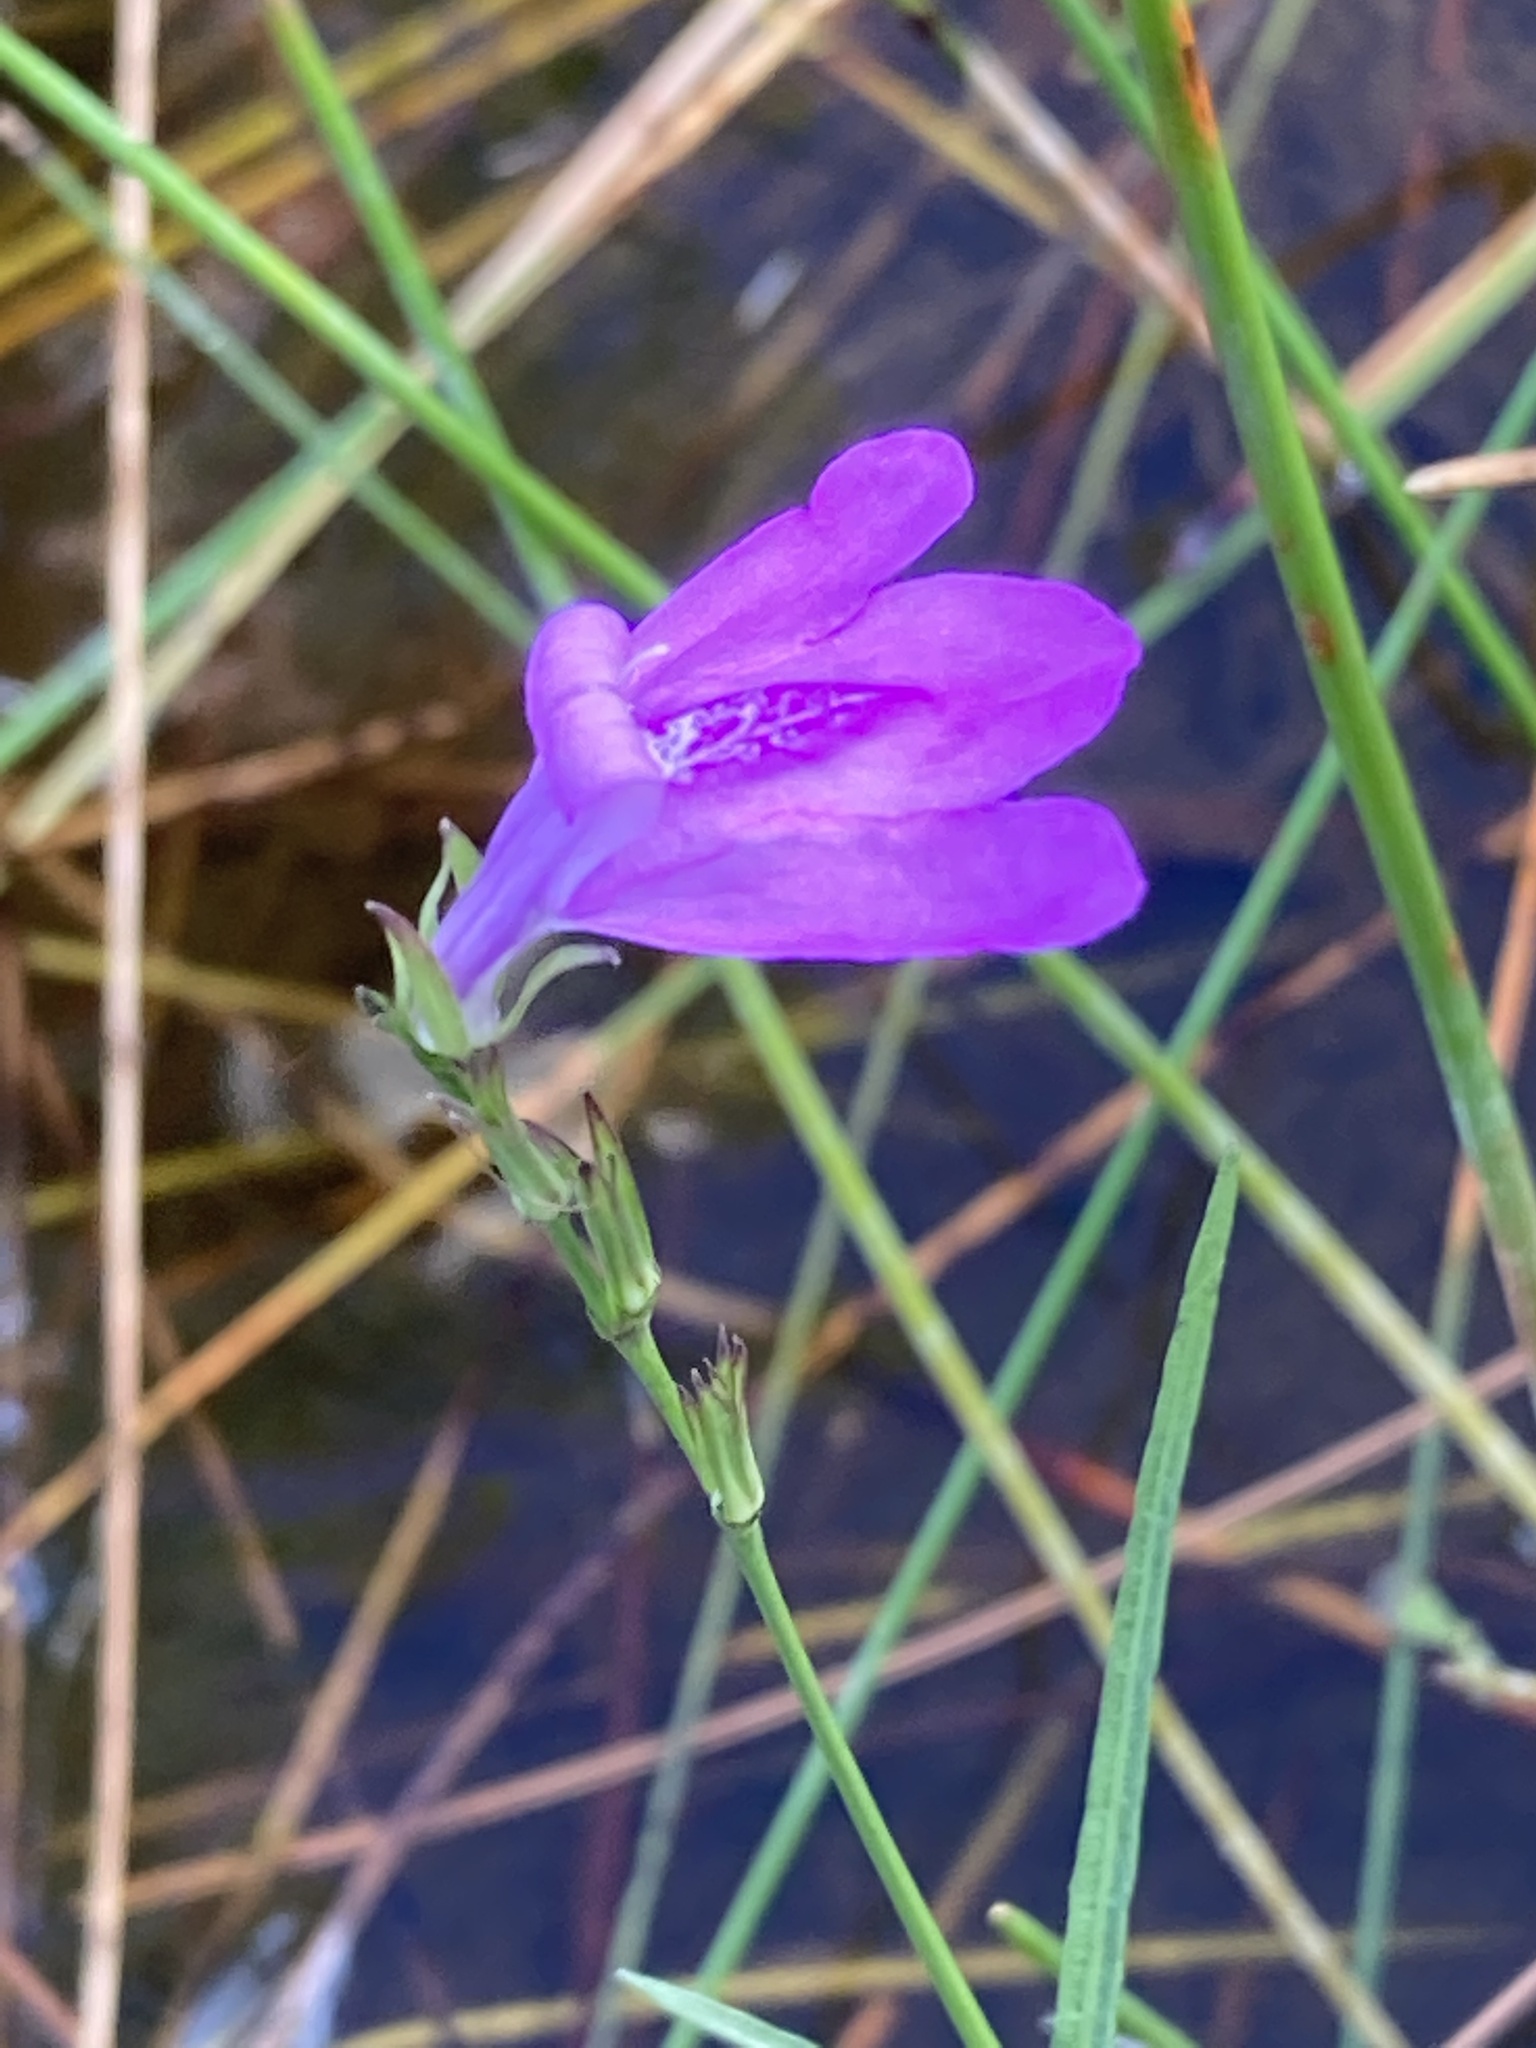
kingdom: Plantae
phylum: Tracheophyta
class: Magnoliopsida
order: Lamiales
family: Acanthaceae
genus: Dianthera
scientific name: Dianthera angusta
